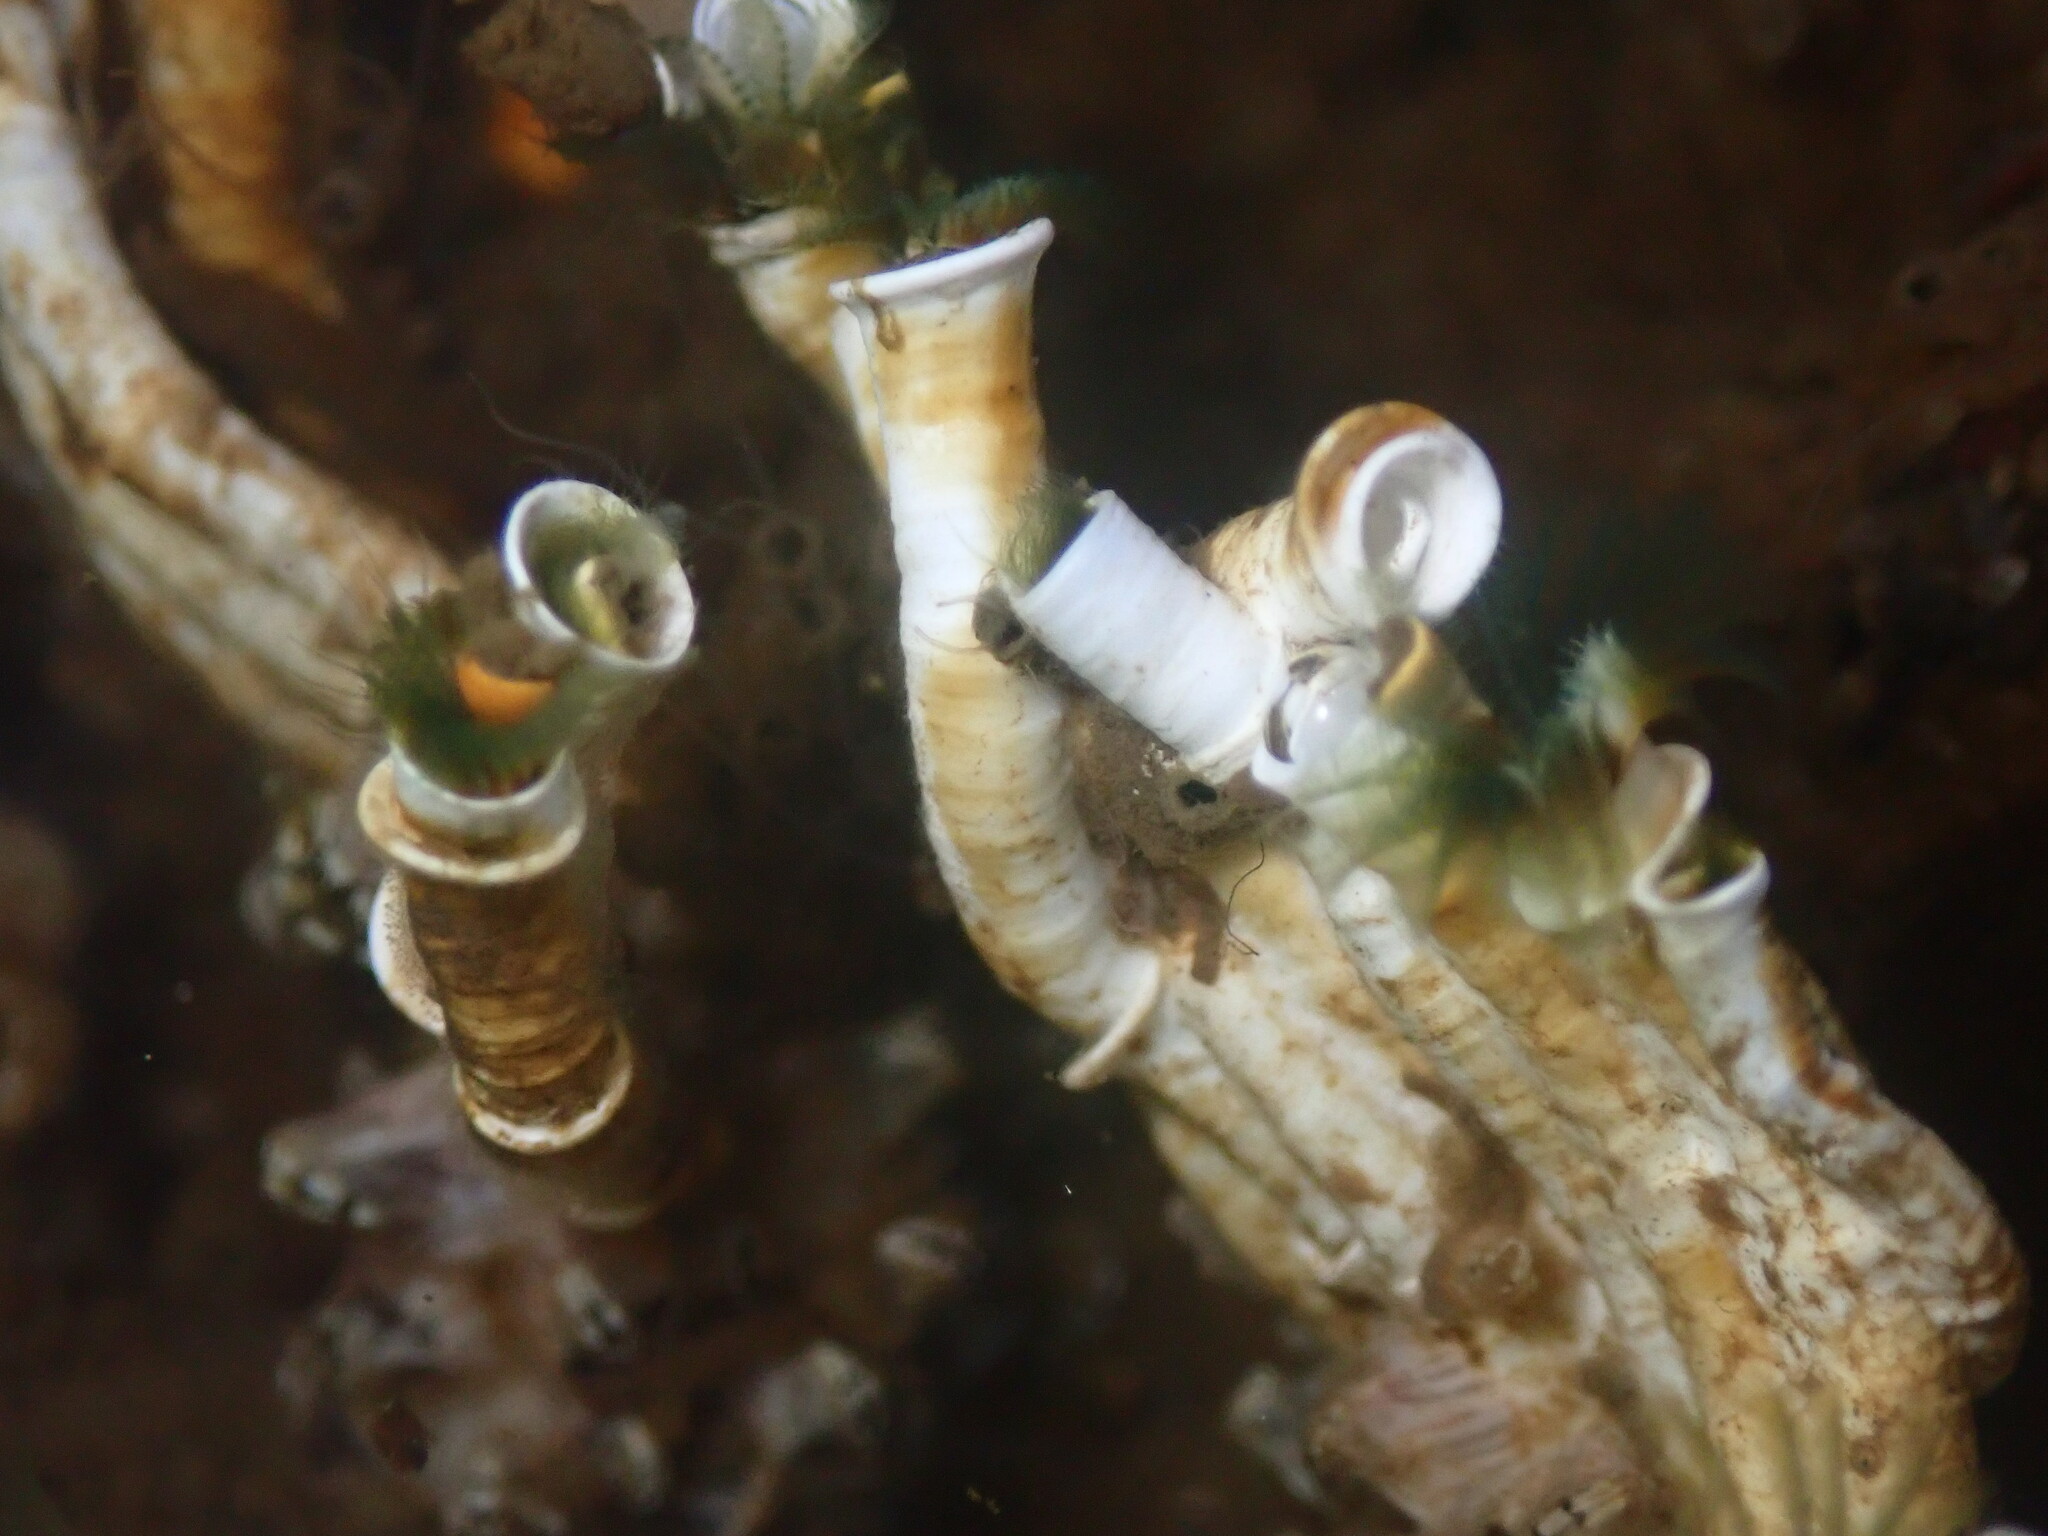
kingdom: Animalia
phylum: Annelida
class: Polychaeta
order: Sabellida
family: Serpulidae
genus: Ficopomatus
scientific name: Ficopomatus enigmaticus
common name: Australian tubeworm
